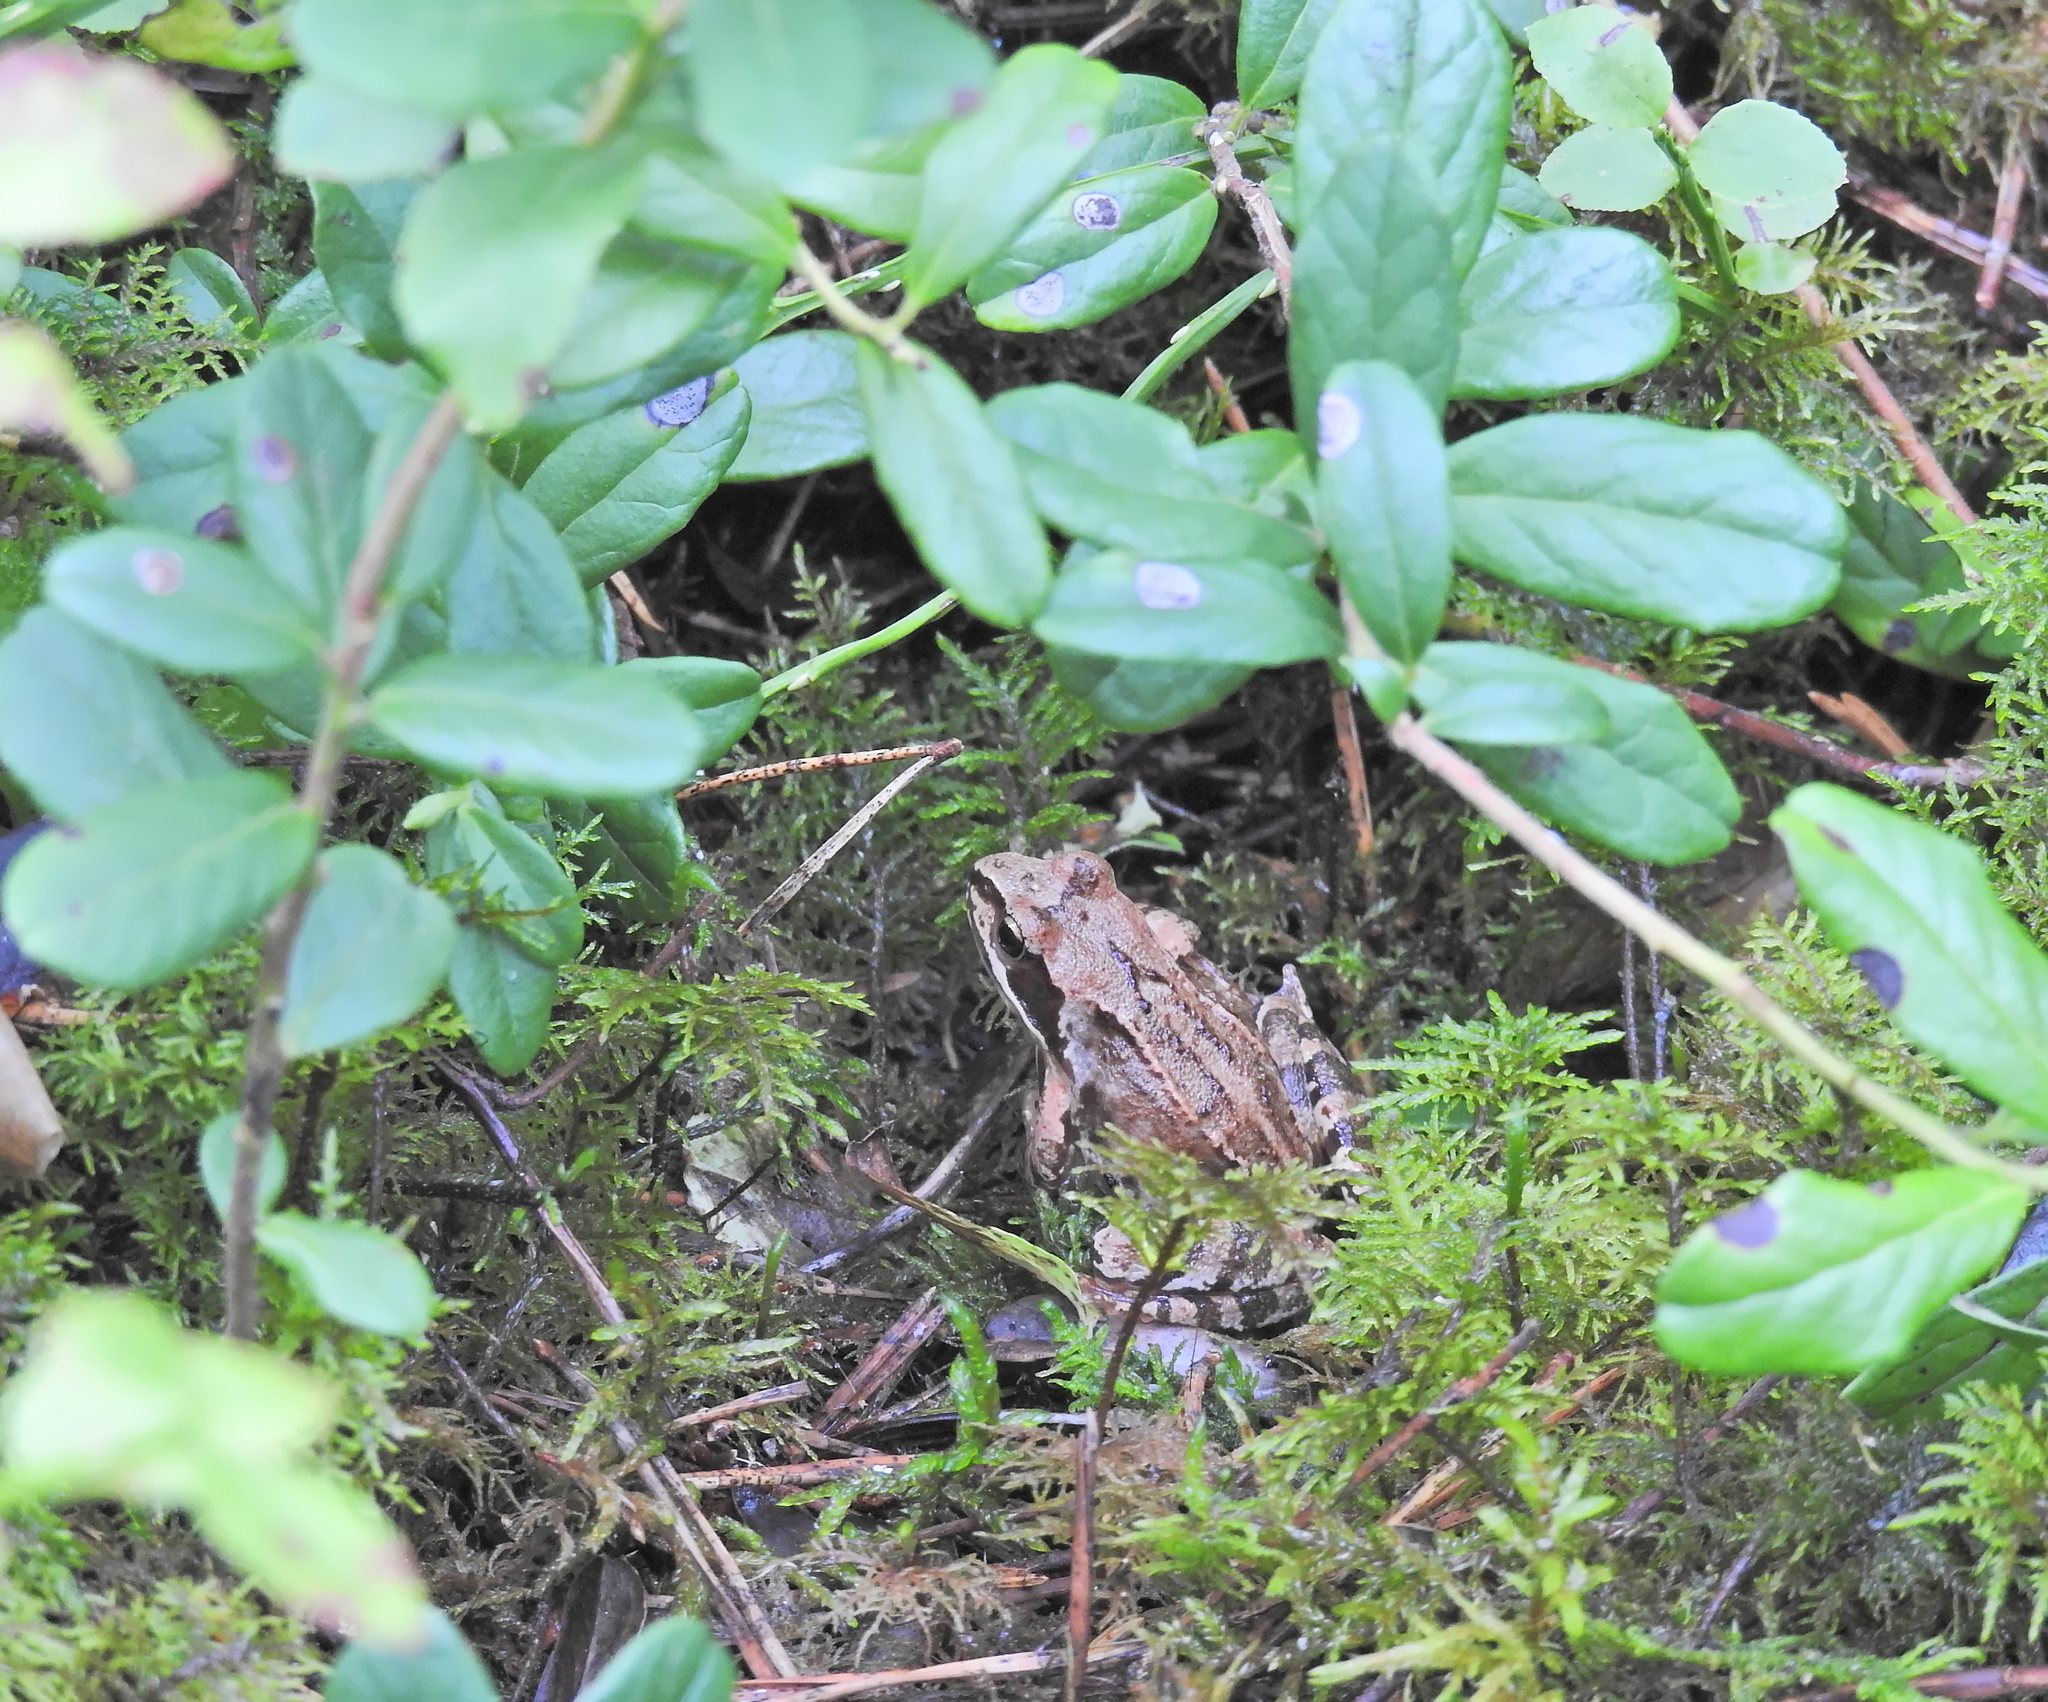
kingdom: Animalia
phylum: Chordata
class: Amphibia
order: Anura
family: Ranidae
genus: Rana
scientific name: Rana temporaria
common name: Common frog
